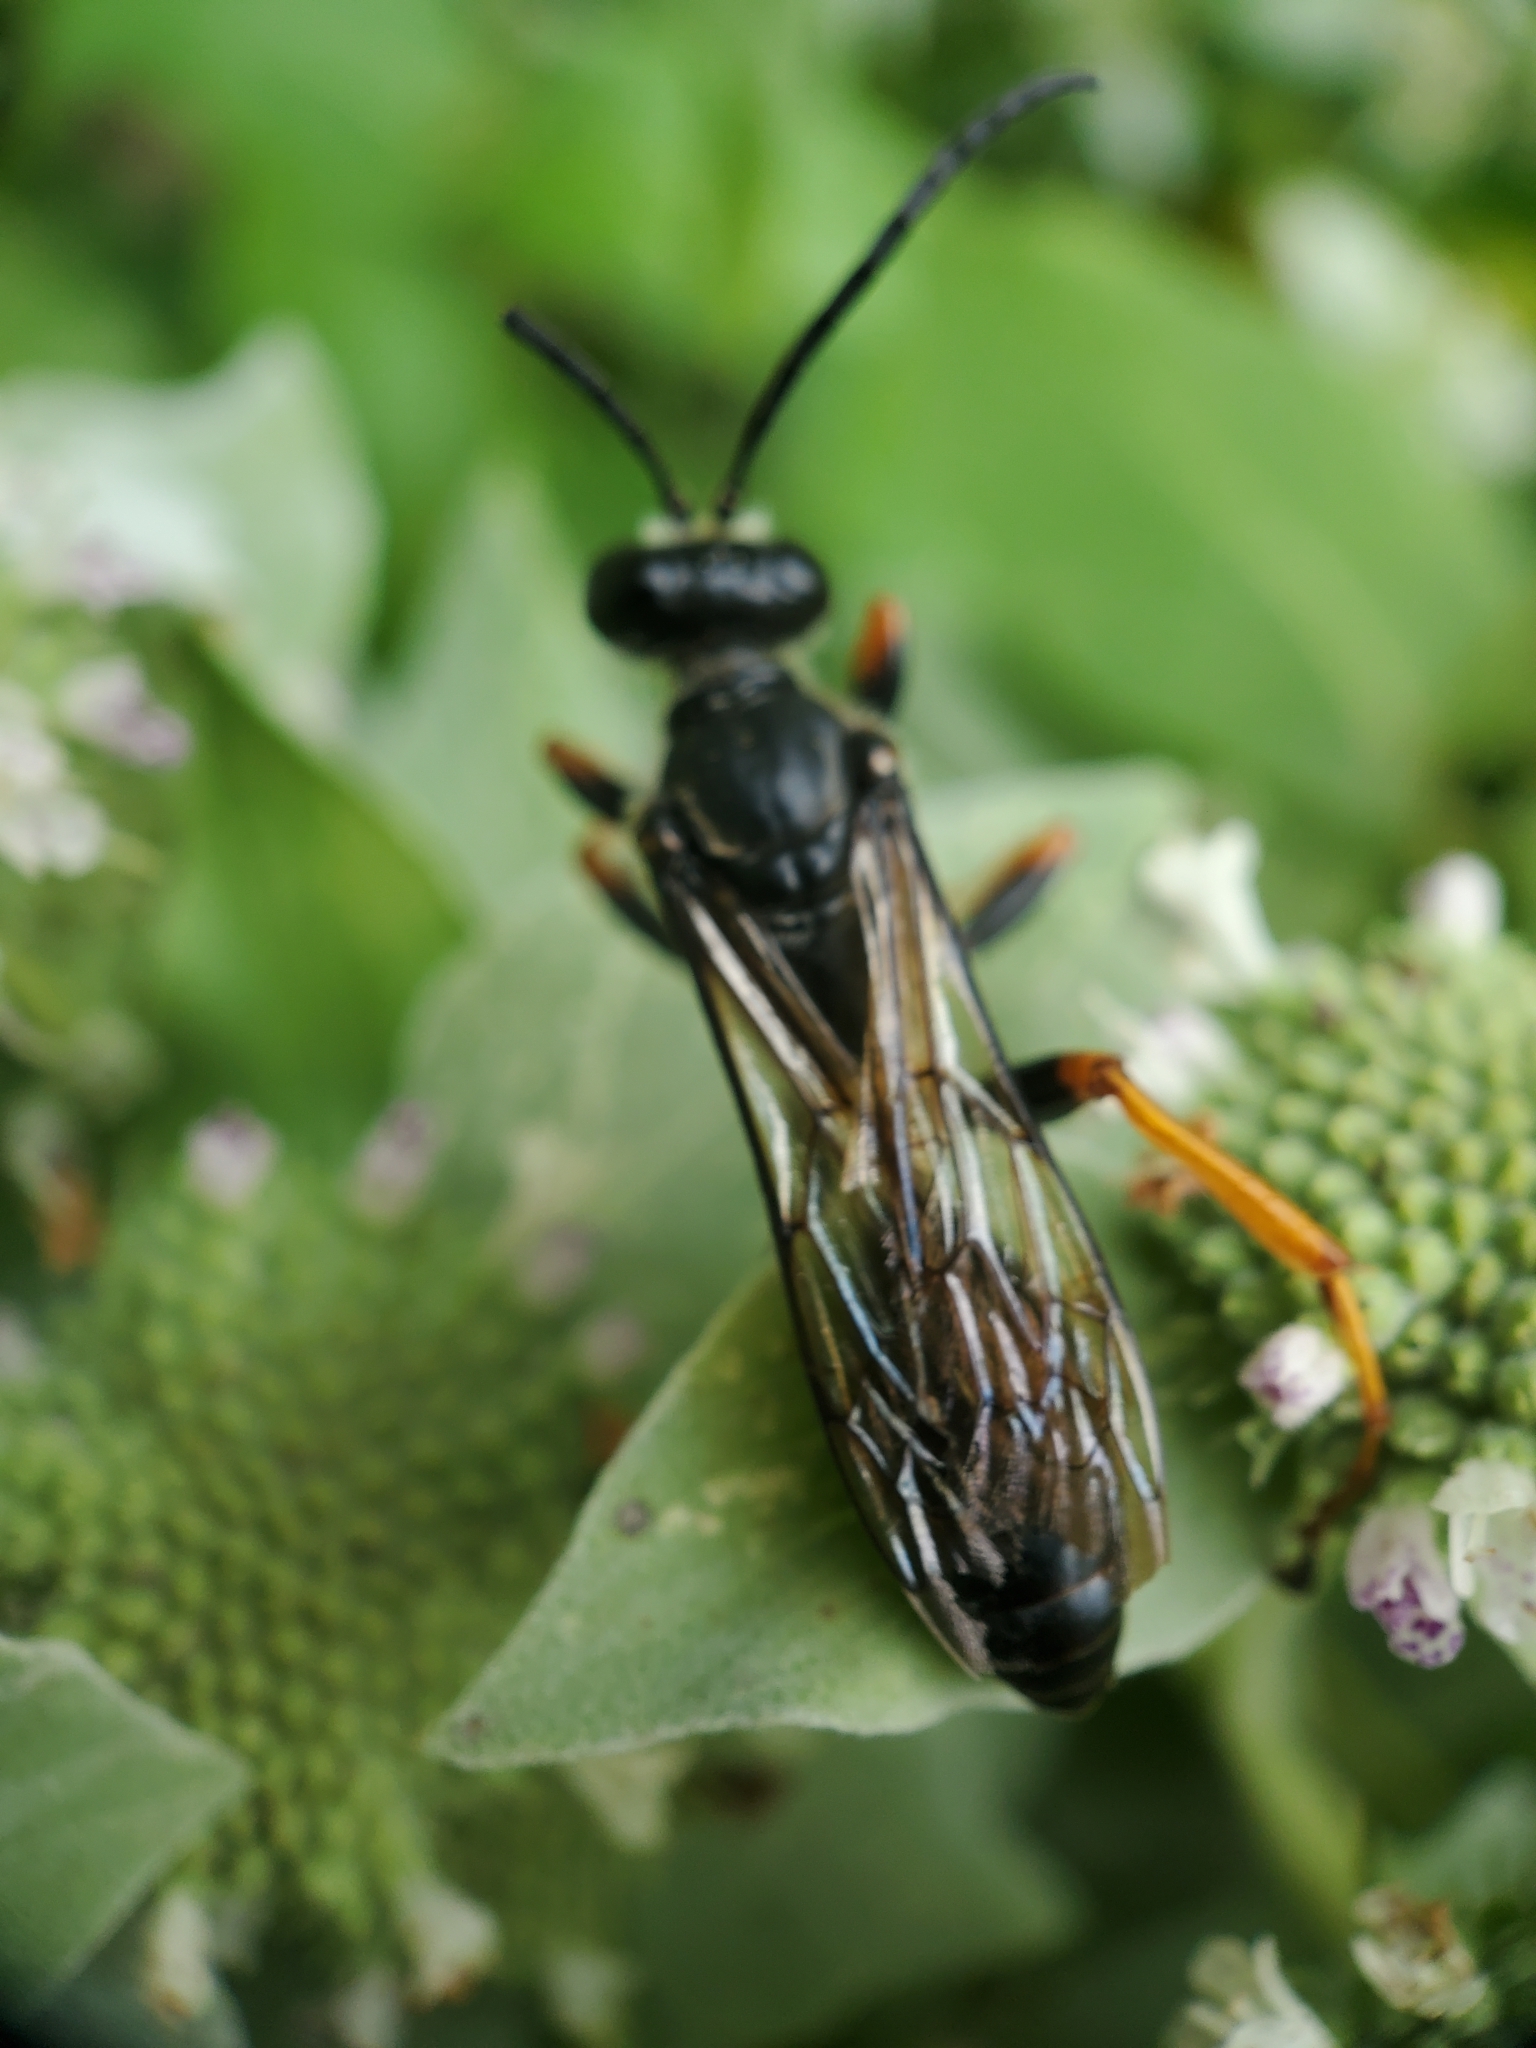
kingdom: Animalia
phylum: Arthropoda
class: Insecta
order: Hymenoptera
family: Sphecidae
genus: Sphex
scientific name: Sphex nudus
